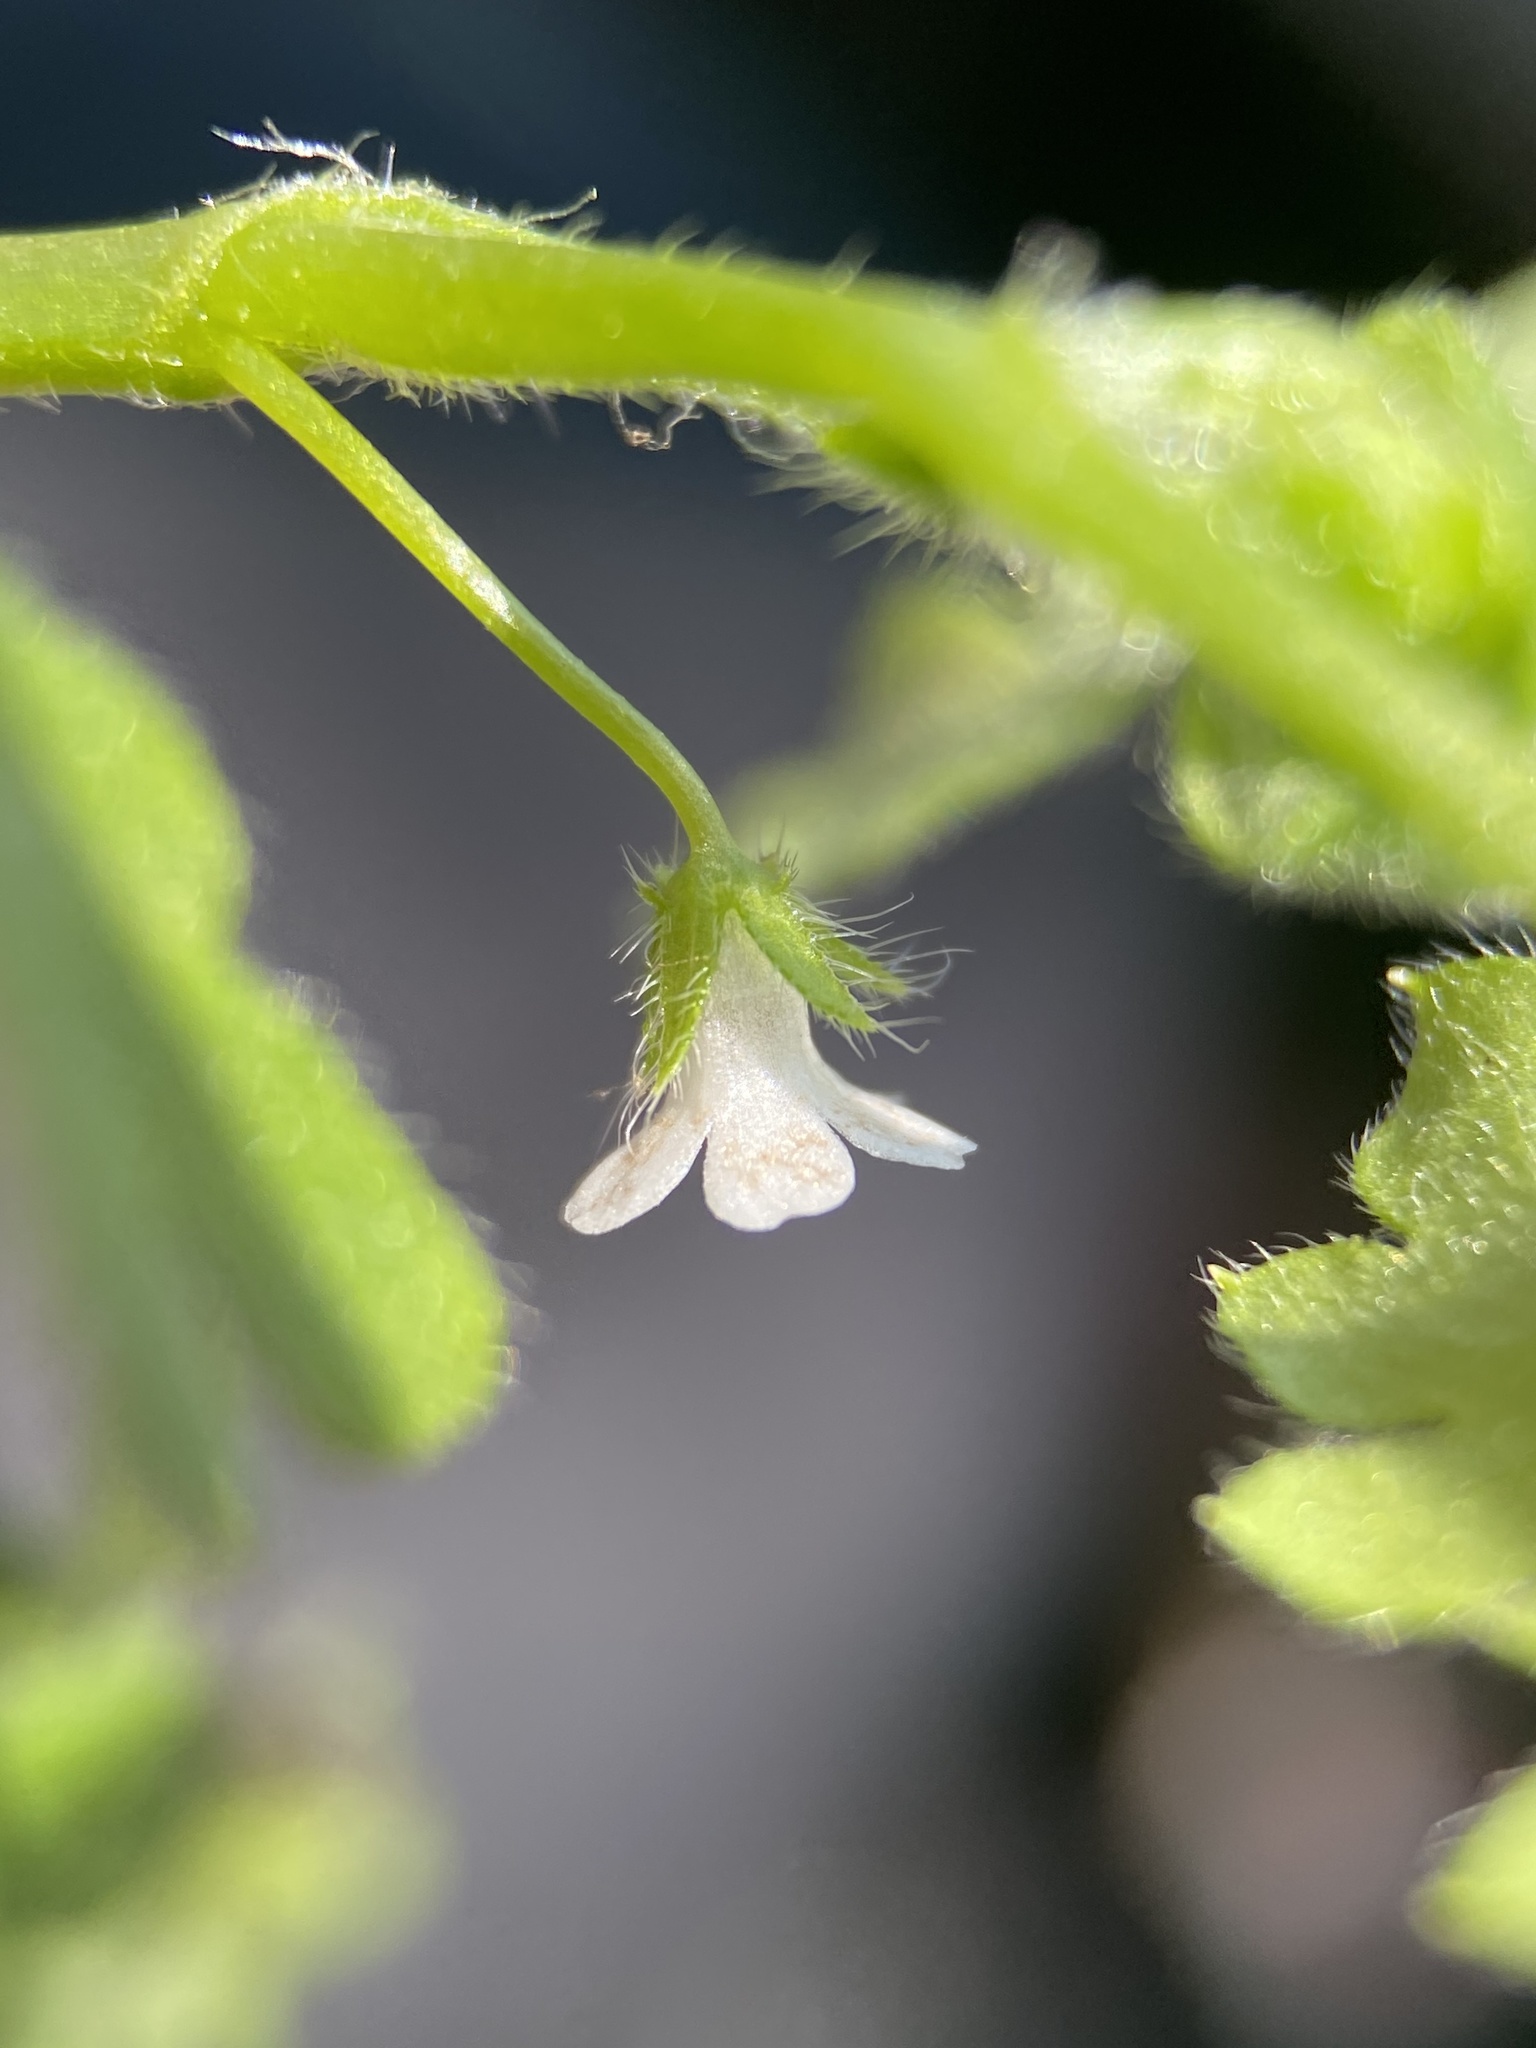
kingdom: Plantae
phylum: Tracheophyta
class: Magnoliopsida
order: Boraginales
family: Hydrophyllaceae
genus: Nemophila
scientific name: Nemophila aphylla
